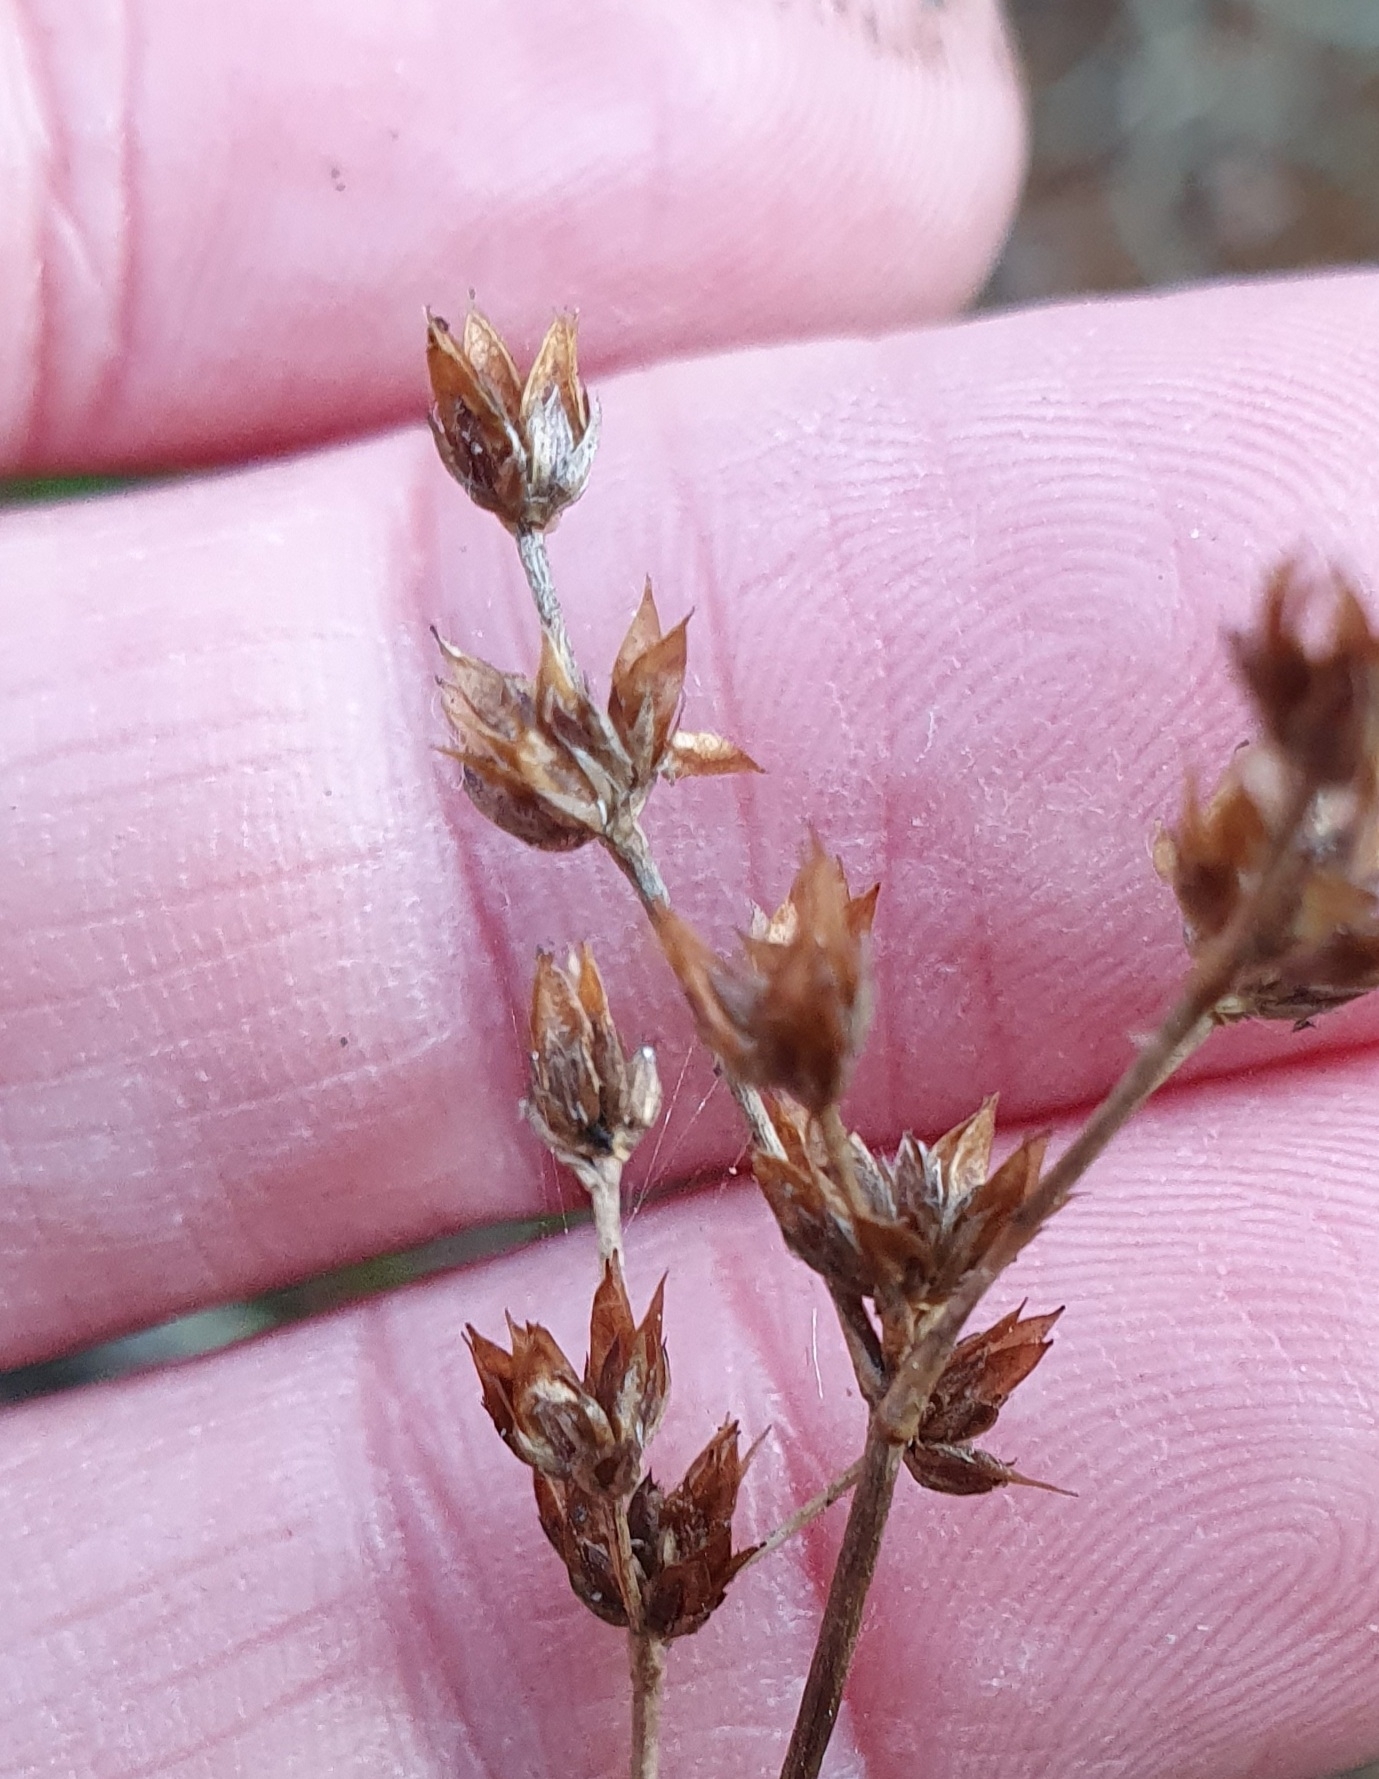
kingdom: Plantae
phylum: Tracheophyta
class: Liliopsida
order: Poales
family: Juncaceae
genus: Juncus
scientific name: Juncus prismatocarpus
